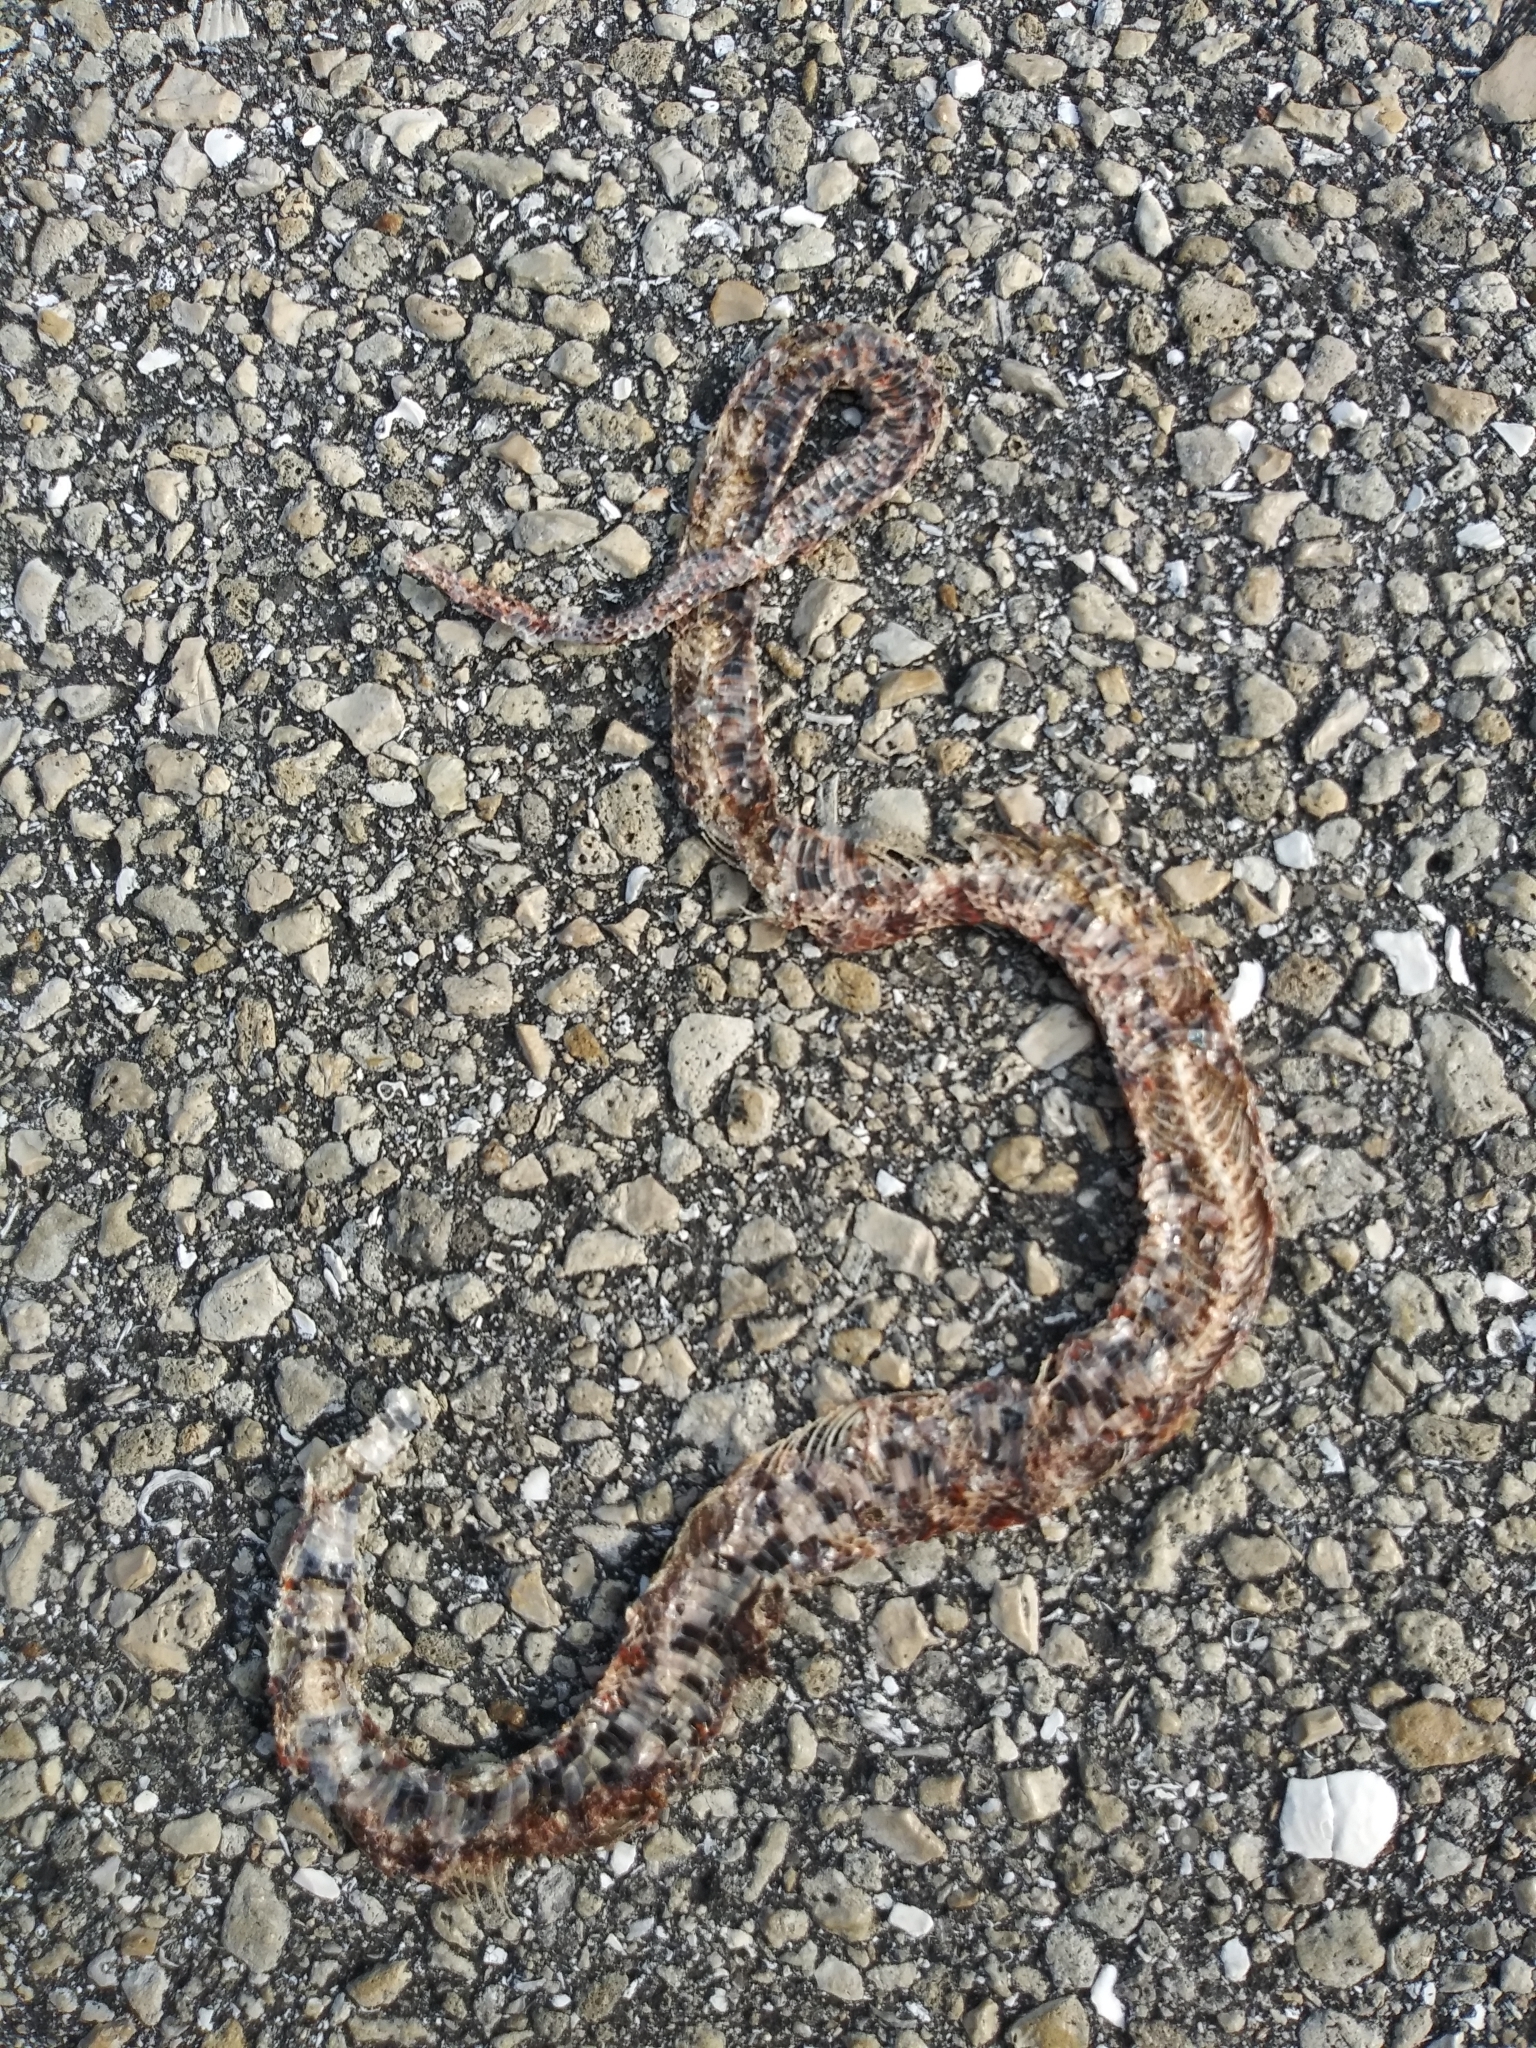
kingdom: Animalia
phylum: Chordata
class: Squamata
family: Colubridae
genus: Pantherophis
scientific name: Pantherophis guttatus
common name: Red cornsnake
